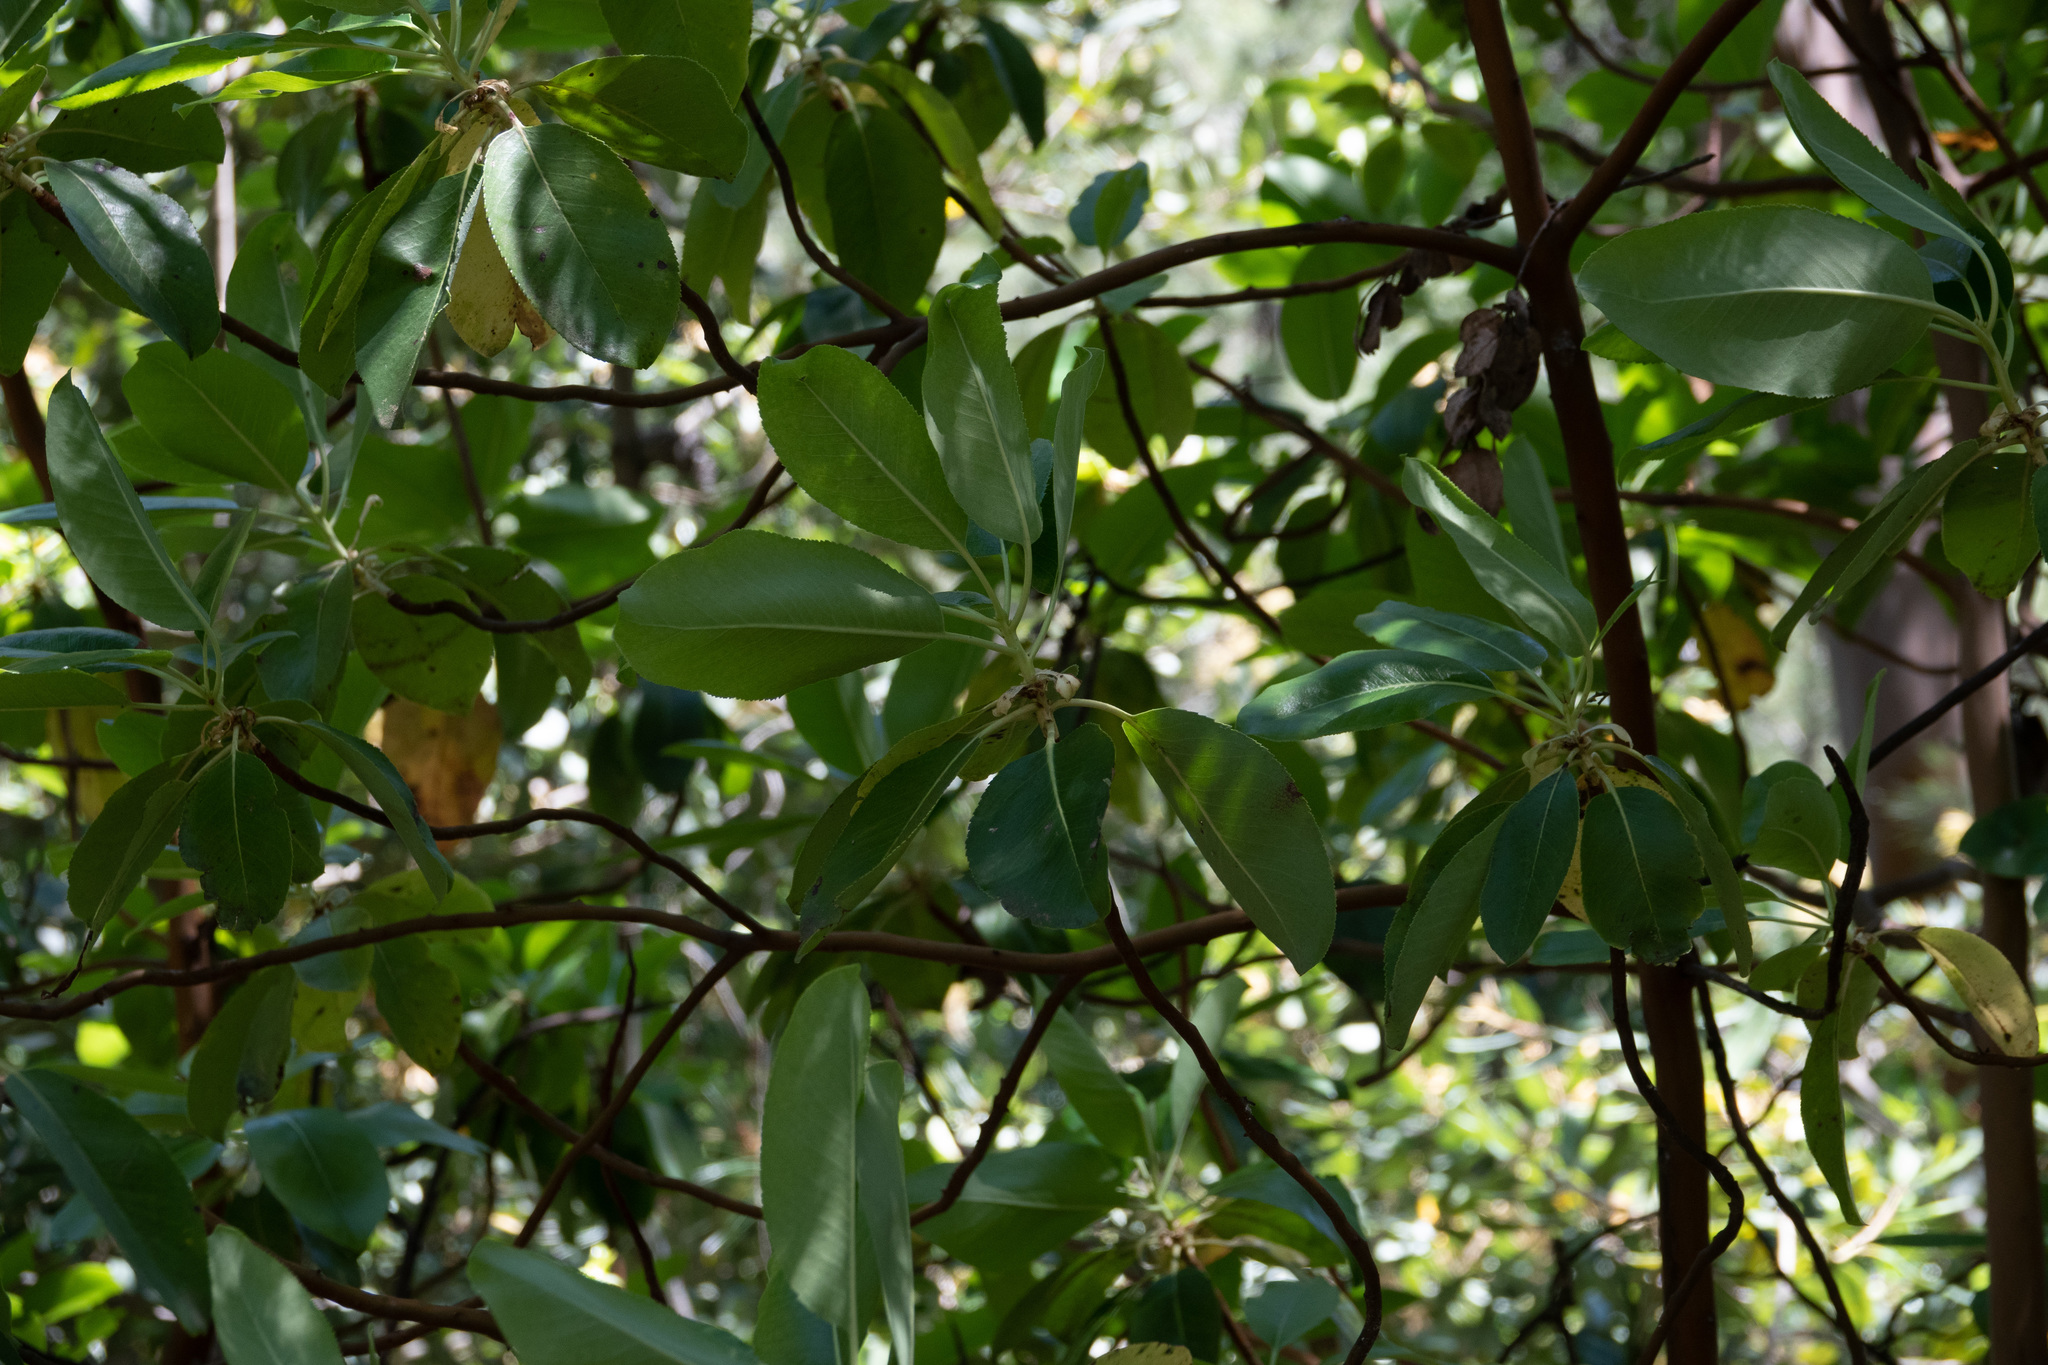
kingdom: Plantae
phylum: Tracheophyta
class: Magnoliopsida
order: Ericales
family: Ericaceae
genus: Arbutus
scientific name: Arbutus menziesii
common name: Pacific madrone
